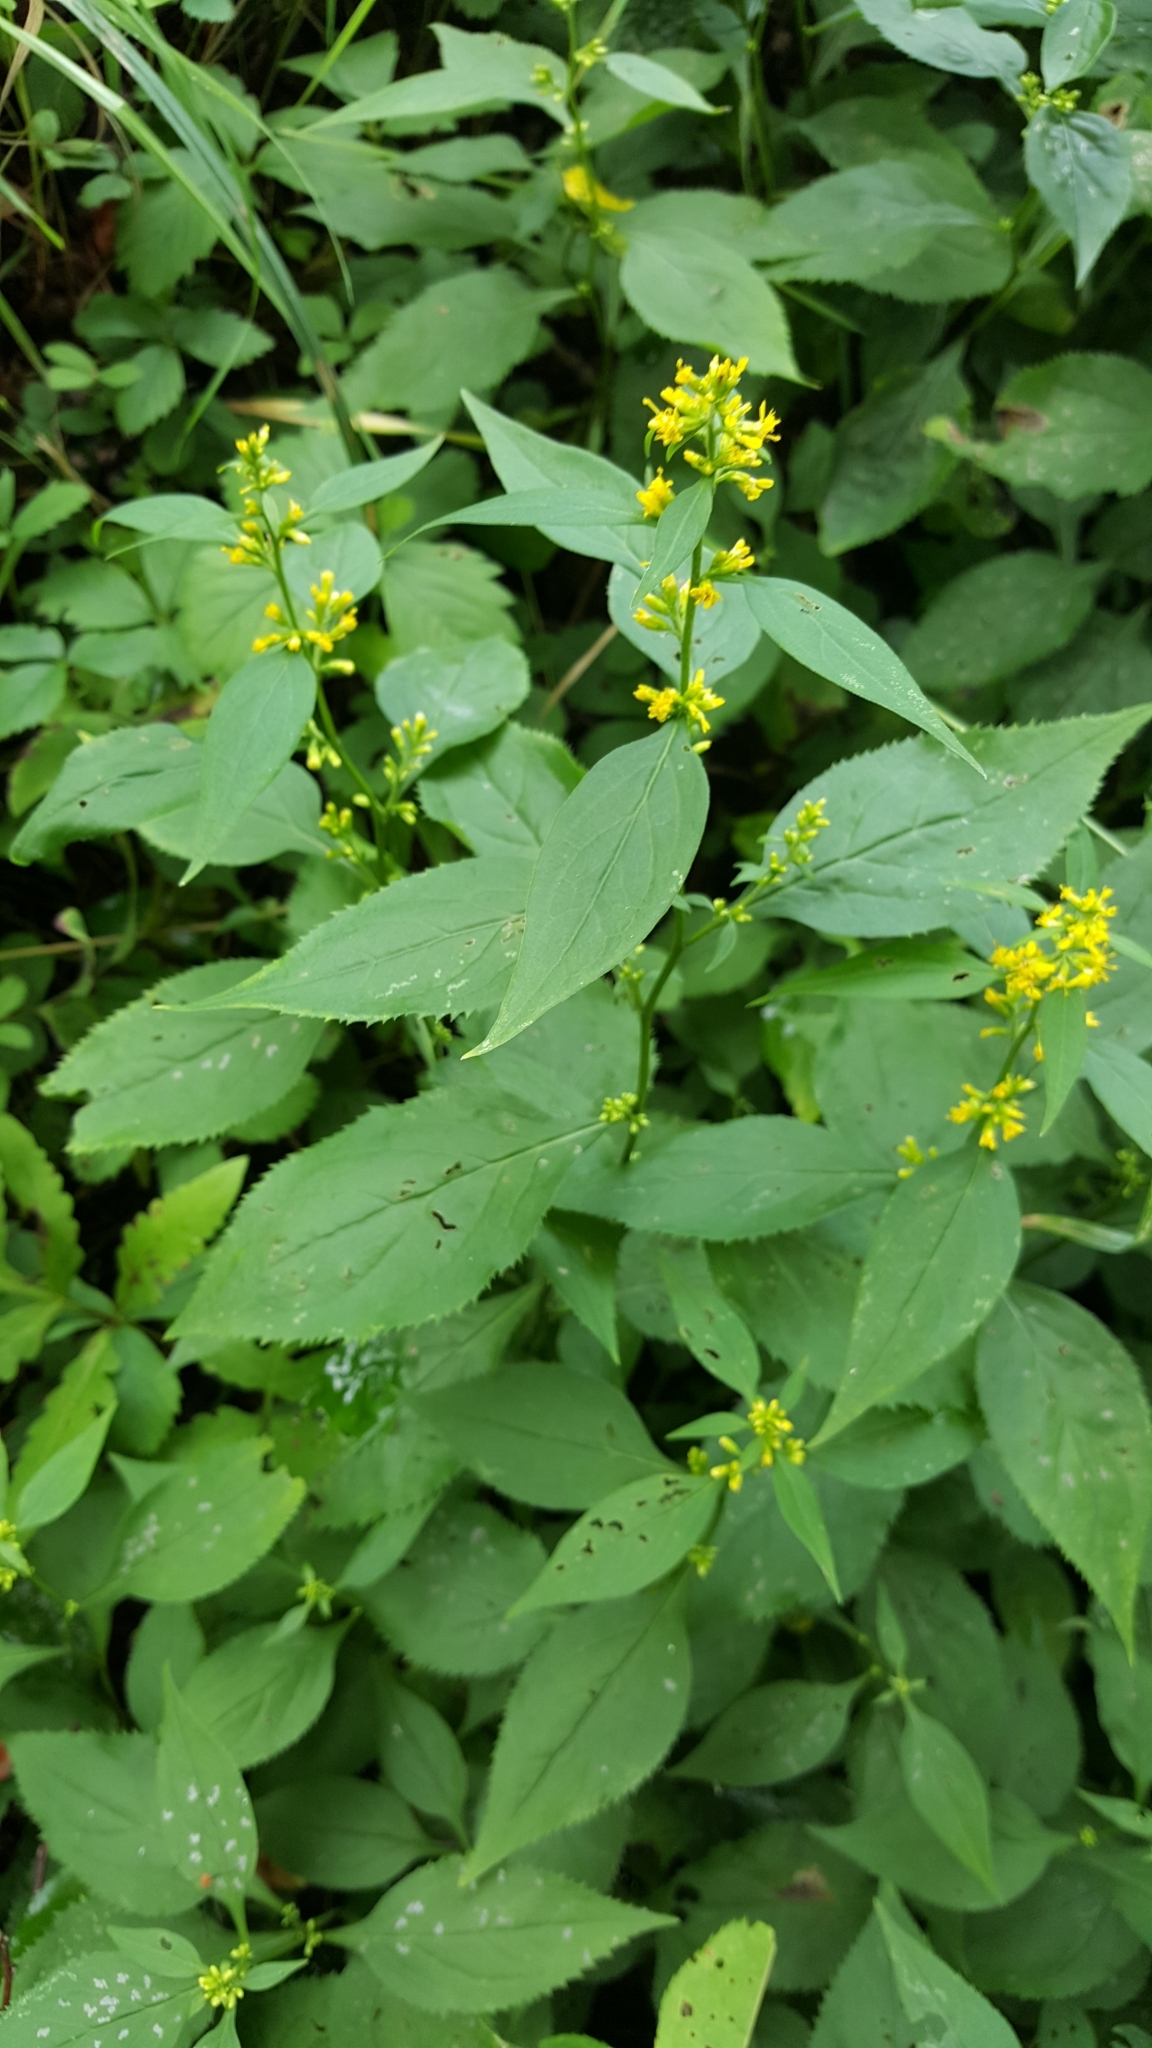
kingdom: Plantae
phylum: Tracheophyta
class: Magnoliopsida
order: Asterales
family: Asteraceae
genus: Solidago
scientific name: Solidago flexicaulis
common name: Zig-zag goldenrod
